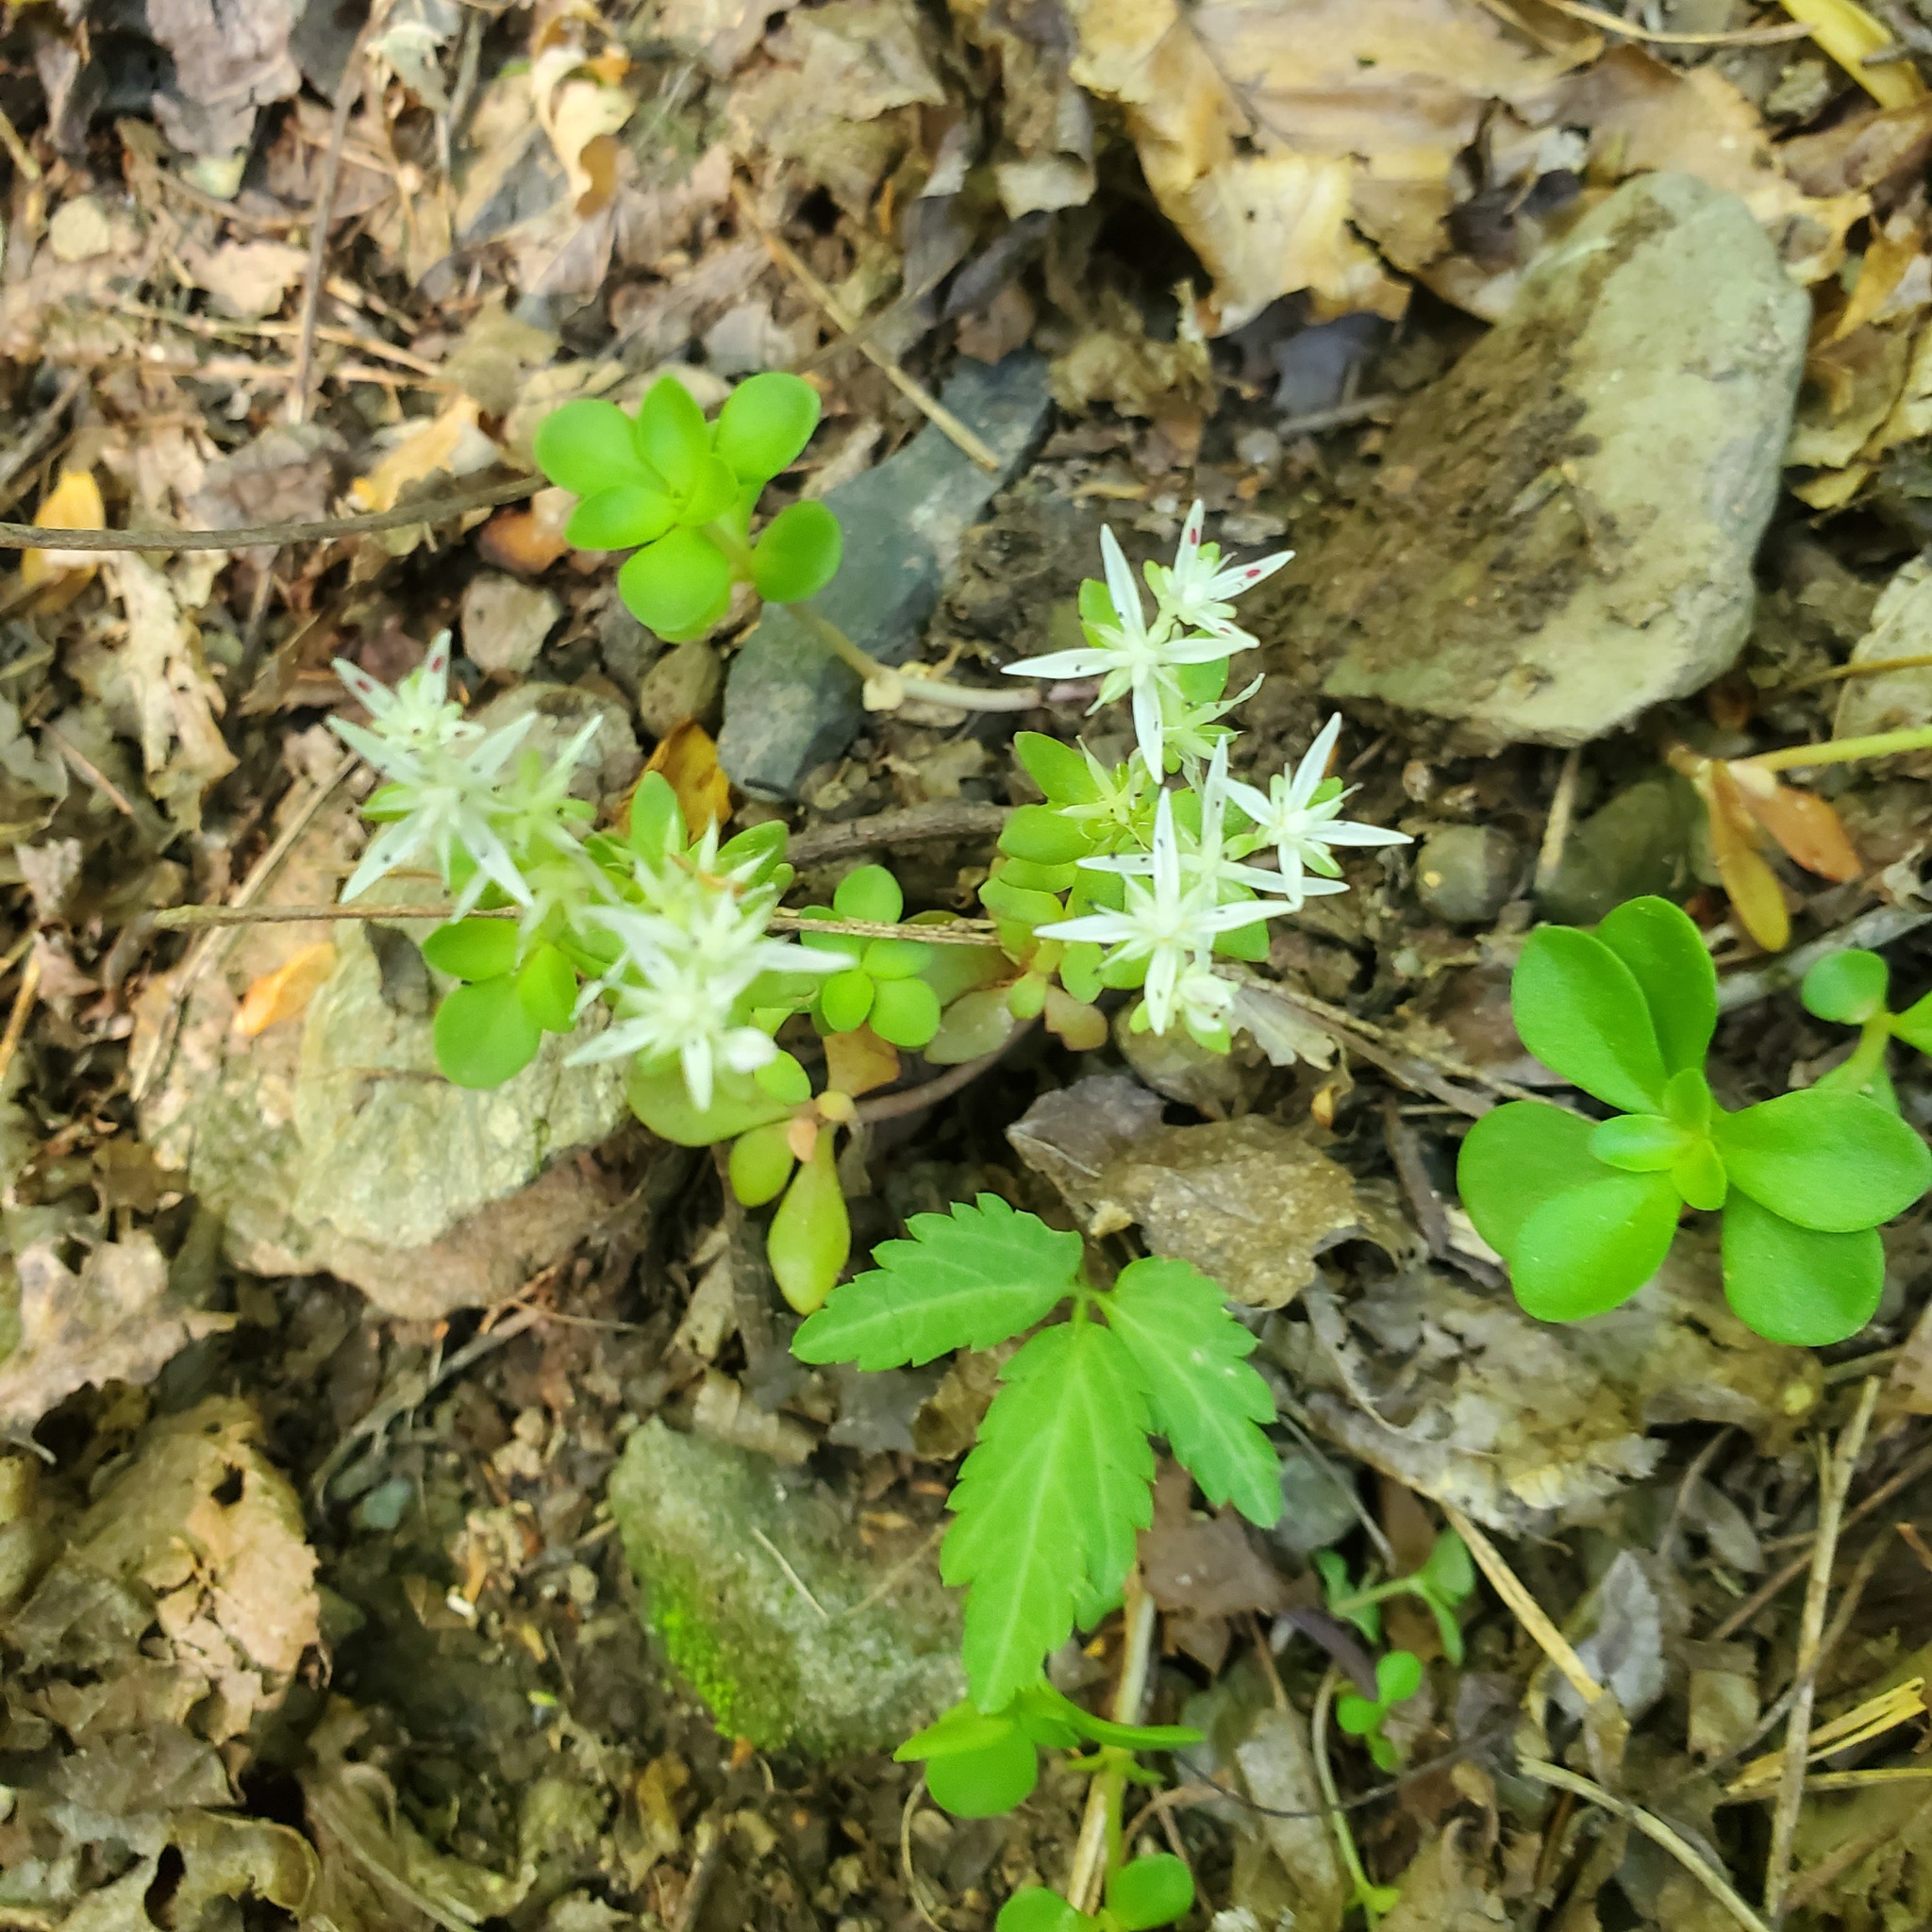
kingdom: Plantae
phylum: Tracheophyta
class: Magnoliopsida
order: Saxifragales
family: Crassulaceae
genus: Sedum
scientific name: Sedum ternatum
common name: Wild stonecrop
